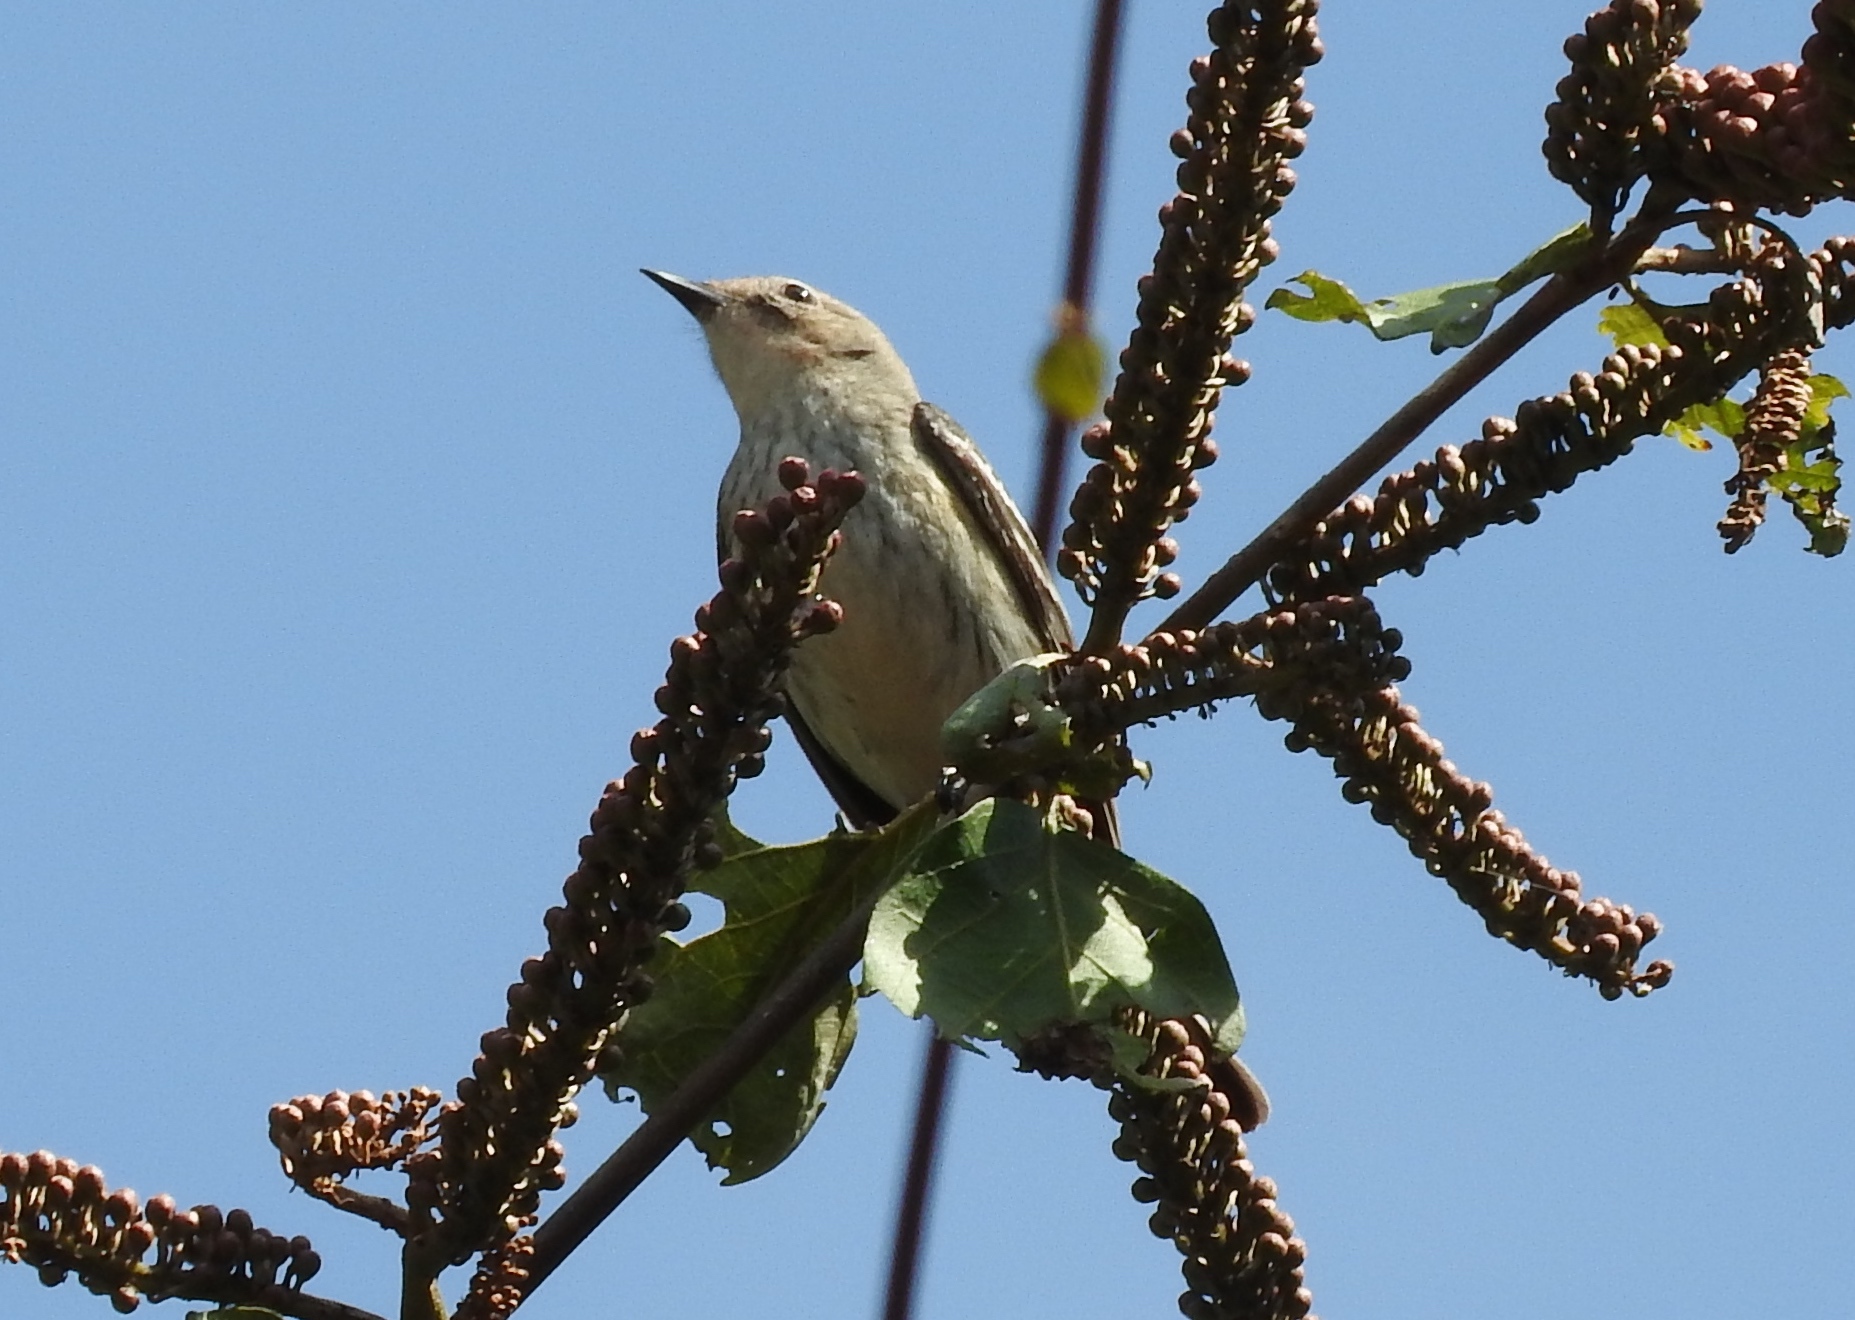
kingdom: Animalia
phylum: Chordata
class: Aves
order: Passeriformes
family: Parulidae
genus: Setophaga
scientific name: Setophaga coronata
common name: Myrtle warbler
